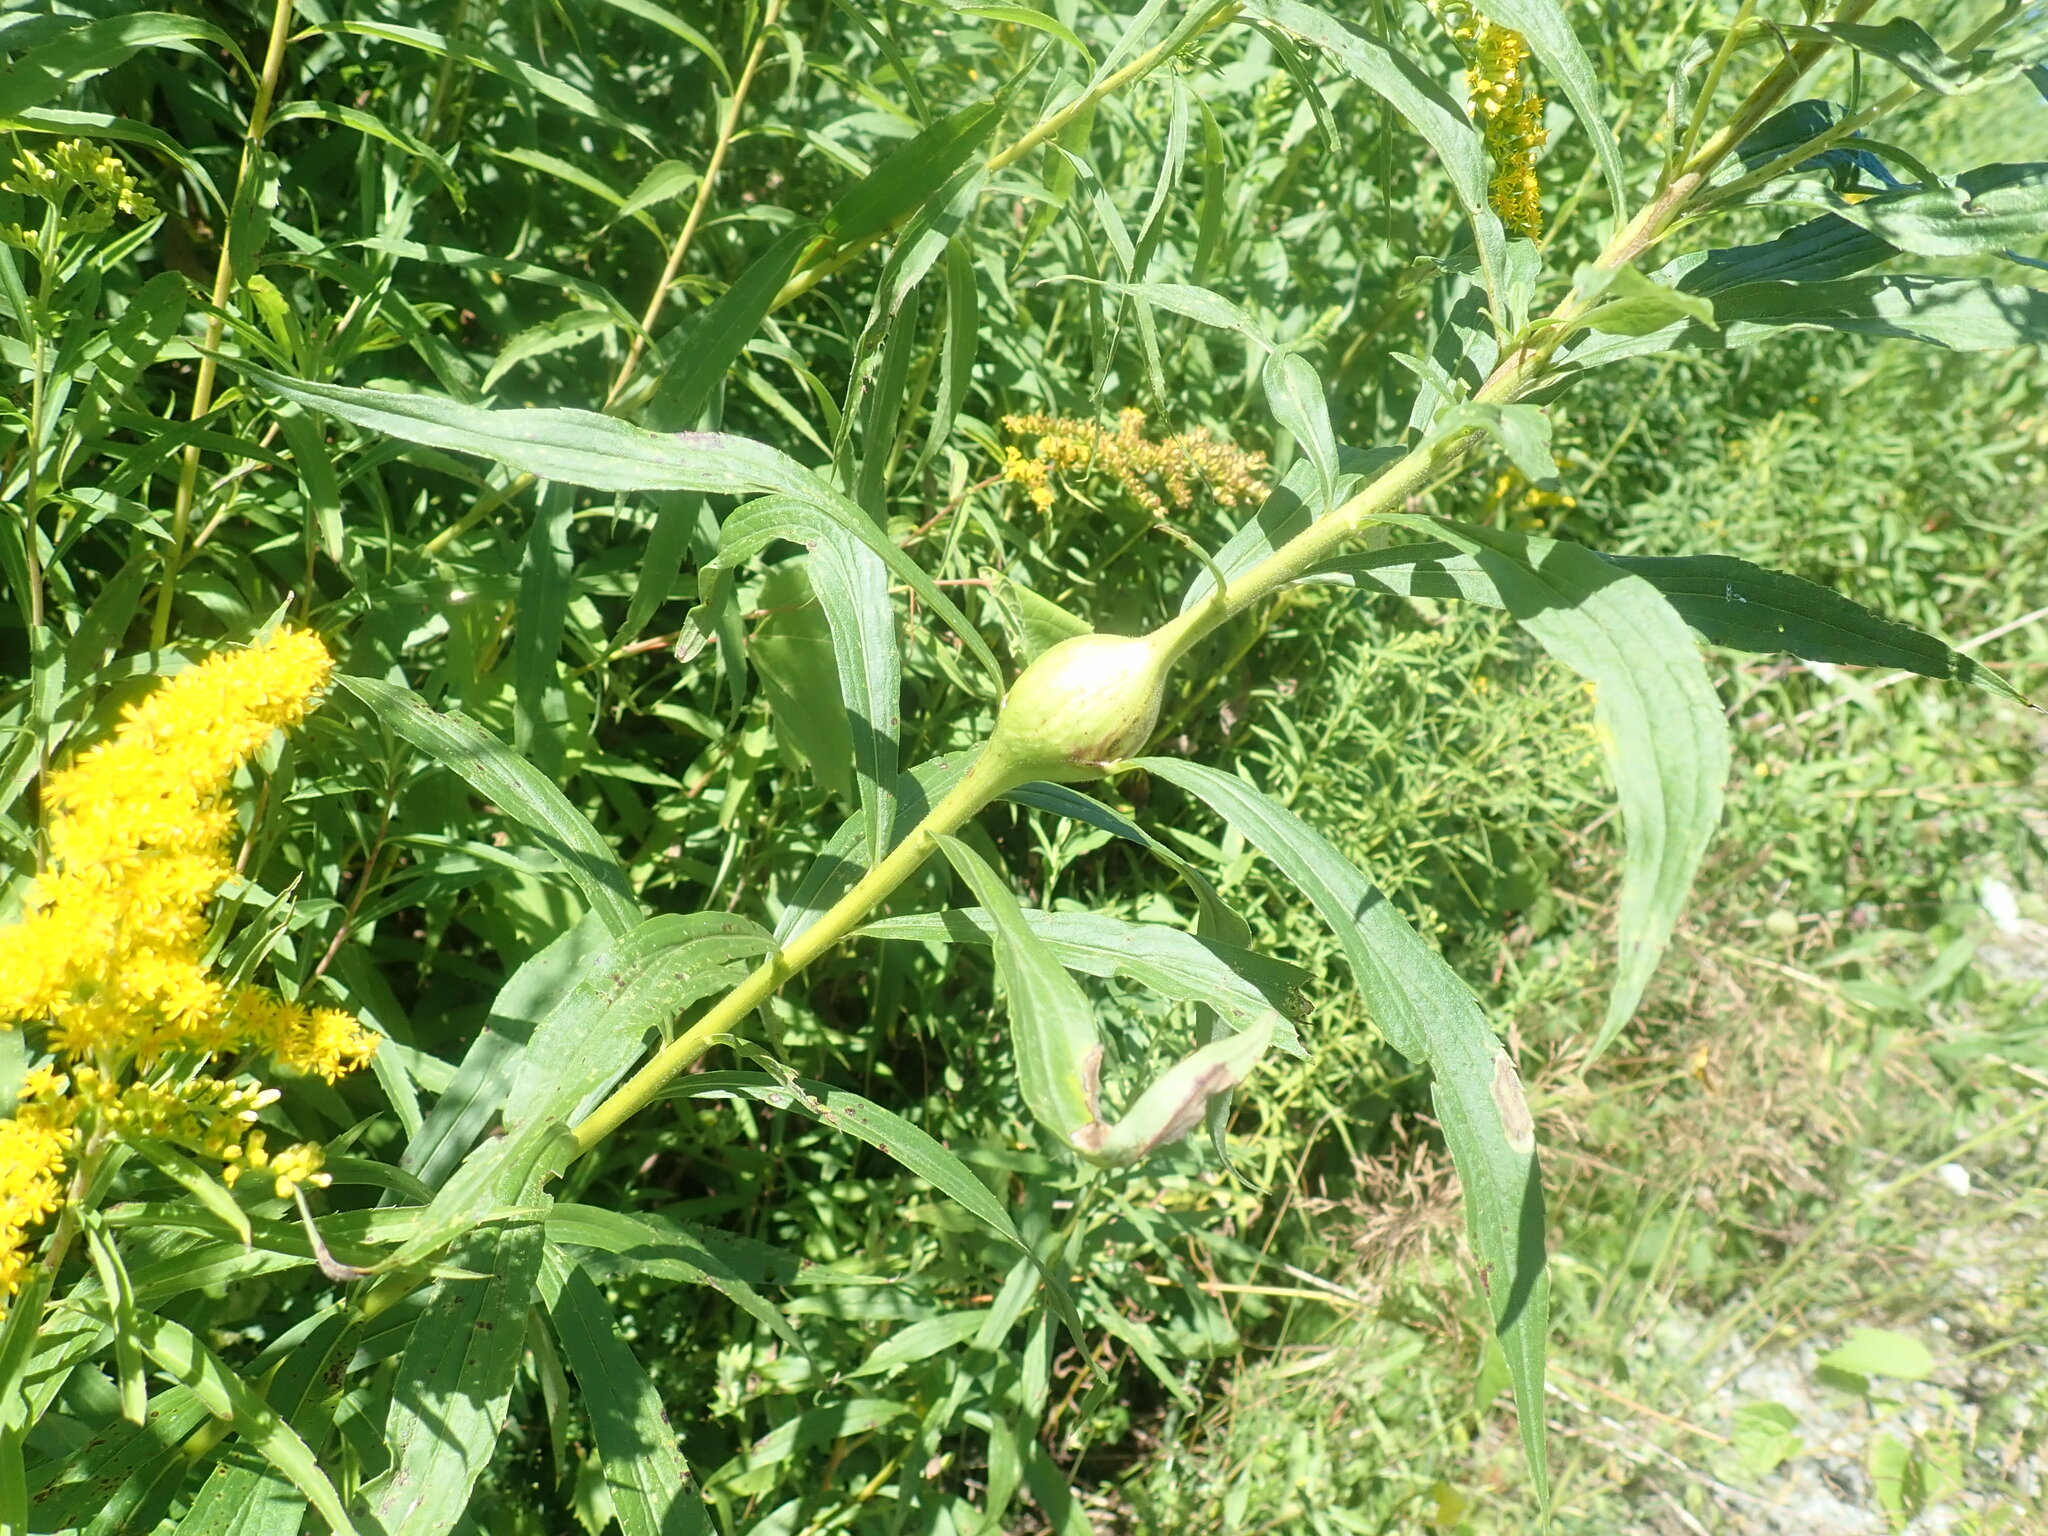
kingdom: Animalia
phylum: Arthropoda
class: Insecta
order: Diptera
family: Tephritidae
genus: Eurosta
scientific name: Eurosta solidaginis
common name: Goldenrod gall fly
